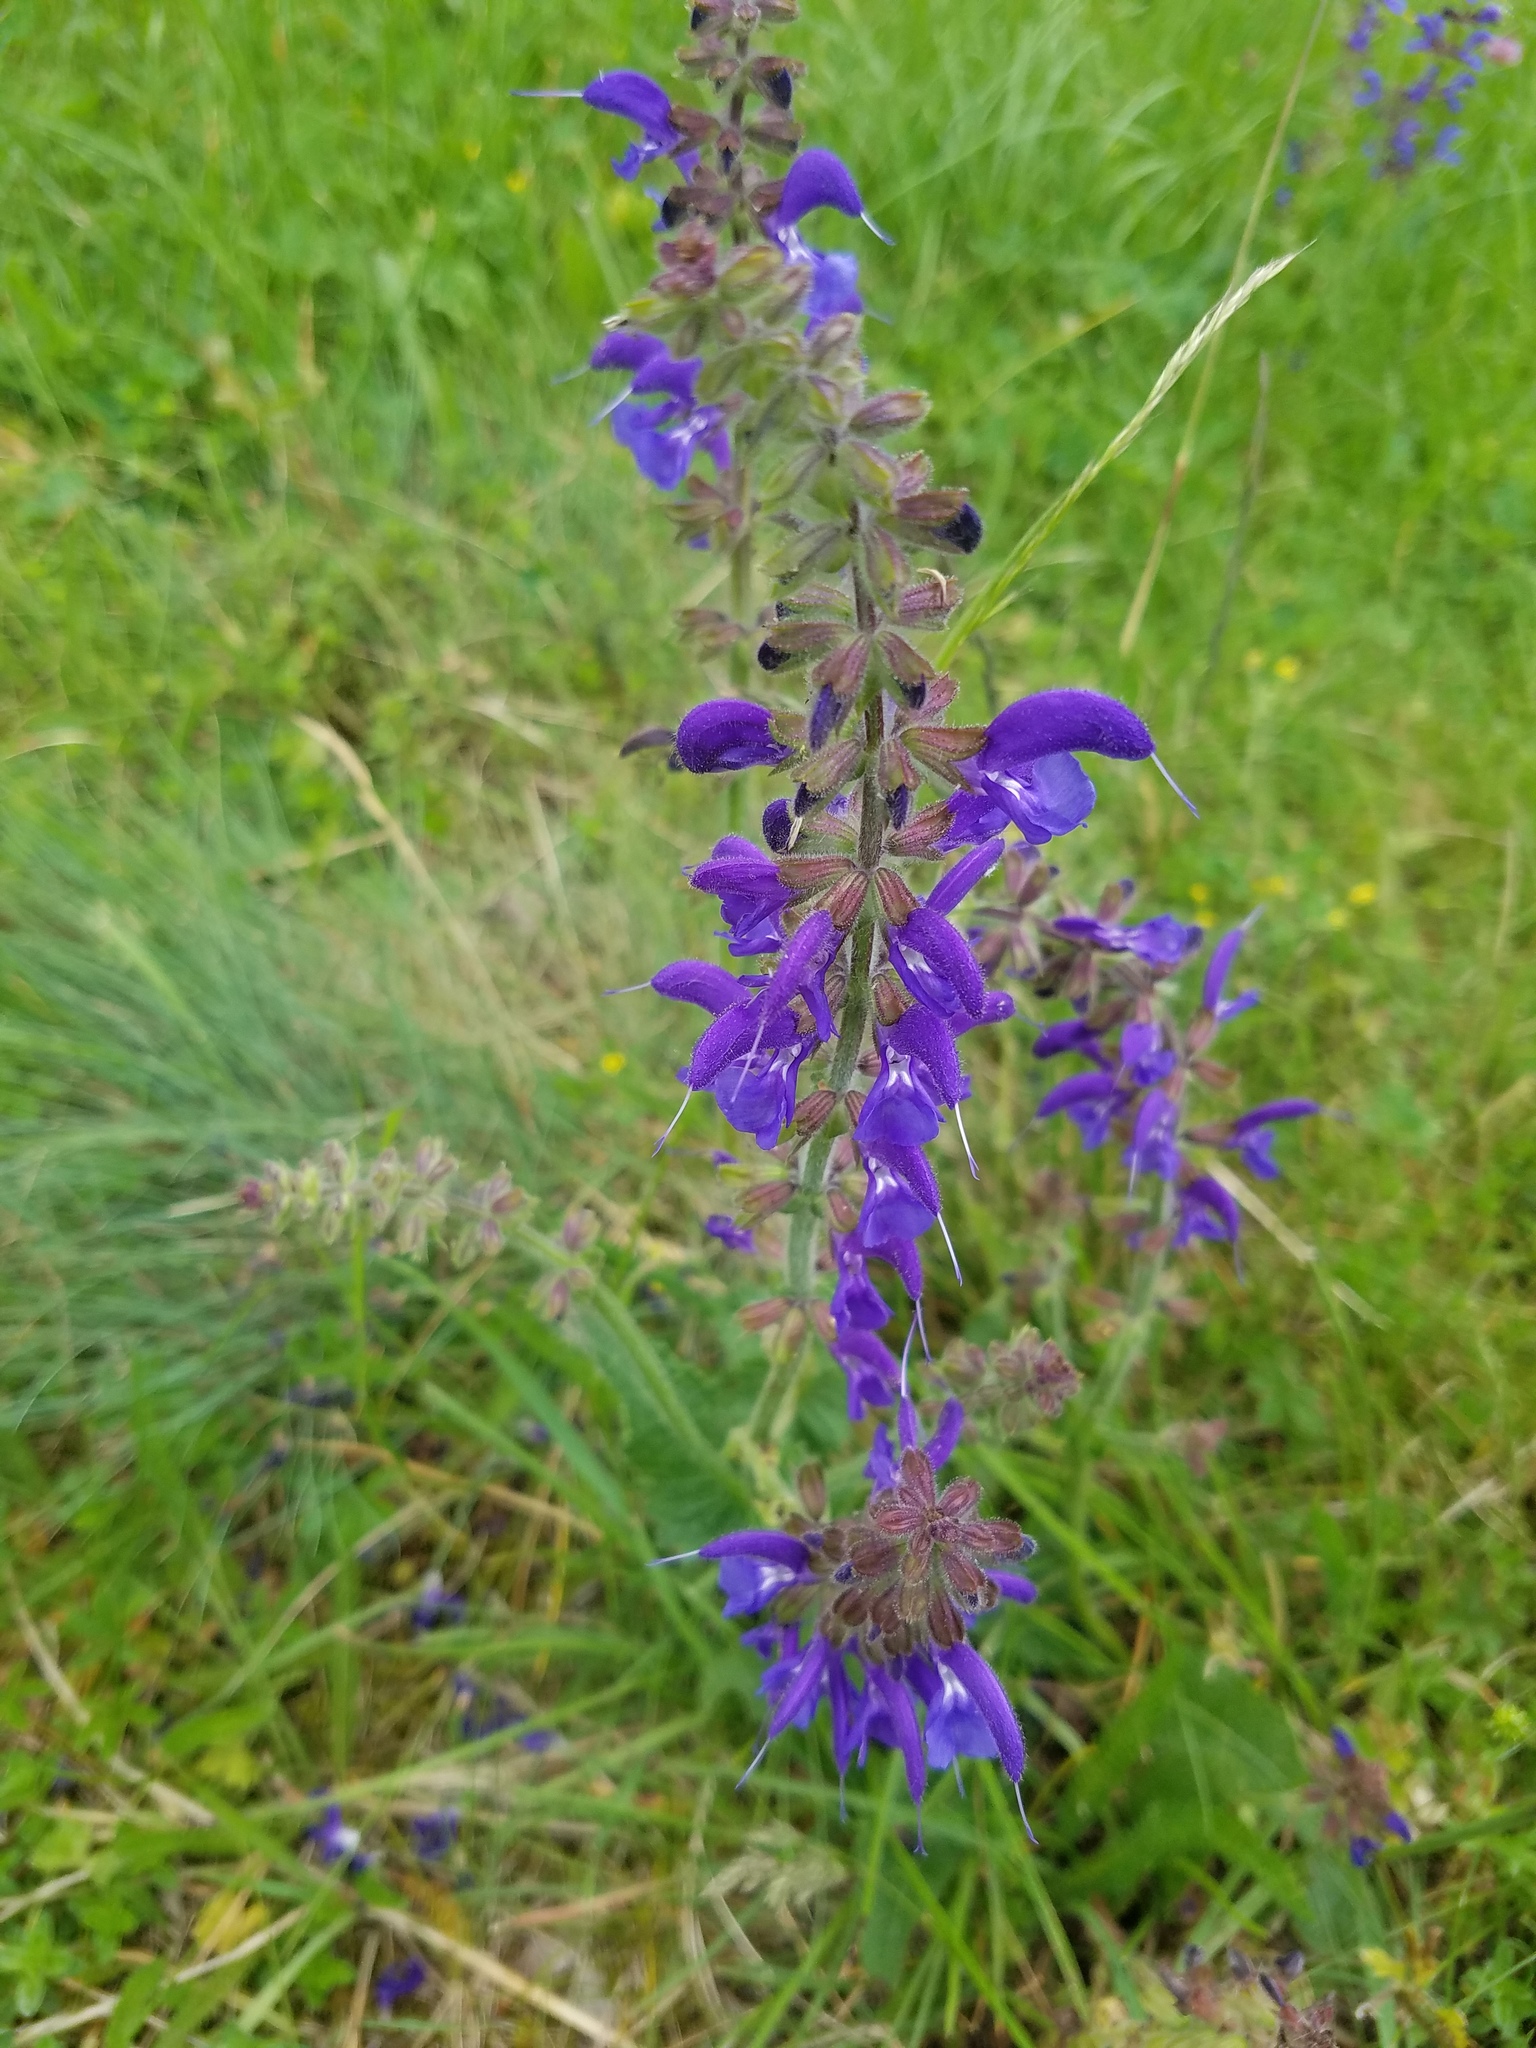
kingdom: Plantae
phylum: Tracheophyta
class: Magnoliopsida
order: Lamiales
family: Lamiaceae
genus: Salvia
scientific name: Salvia pratensis
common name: Meadow sage
